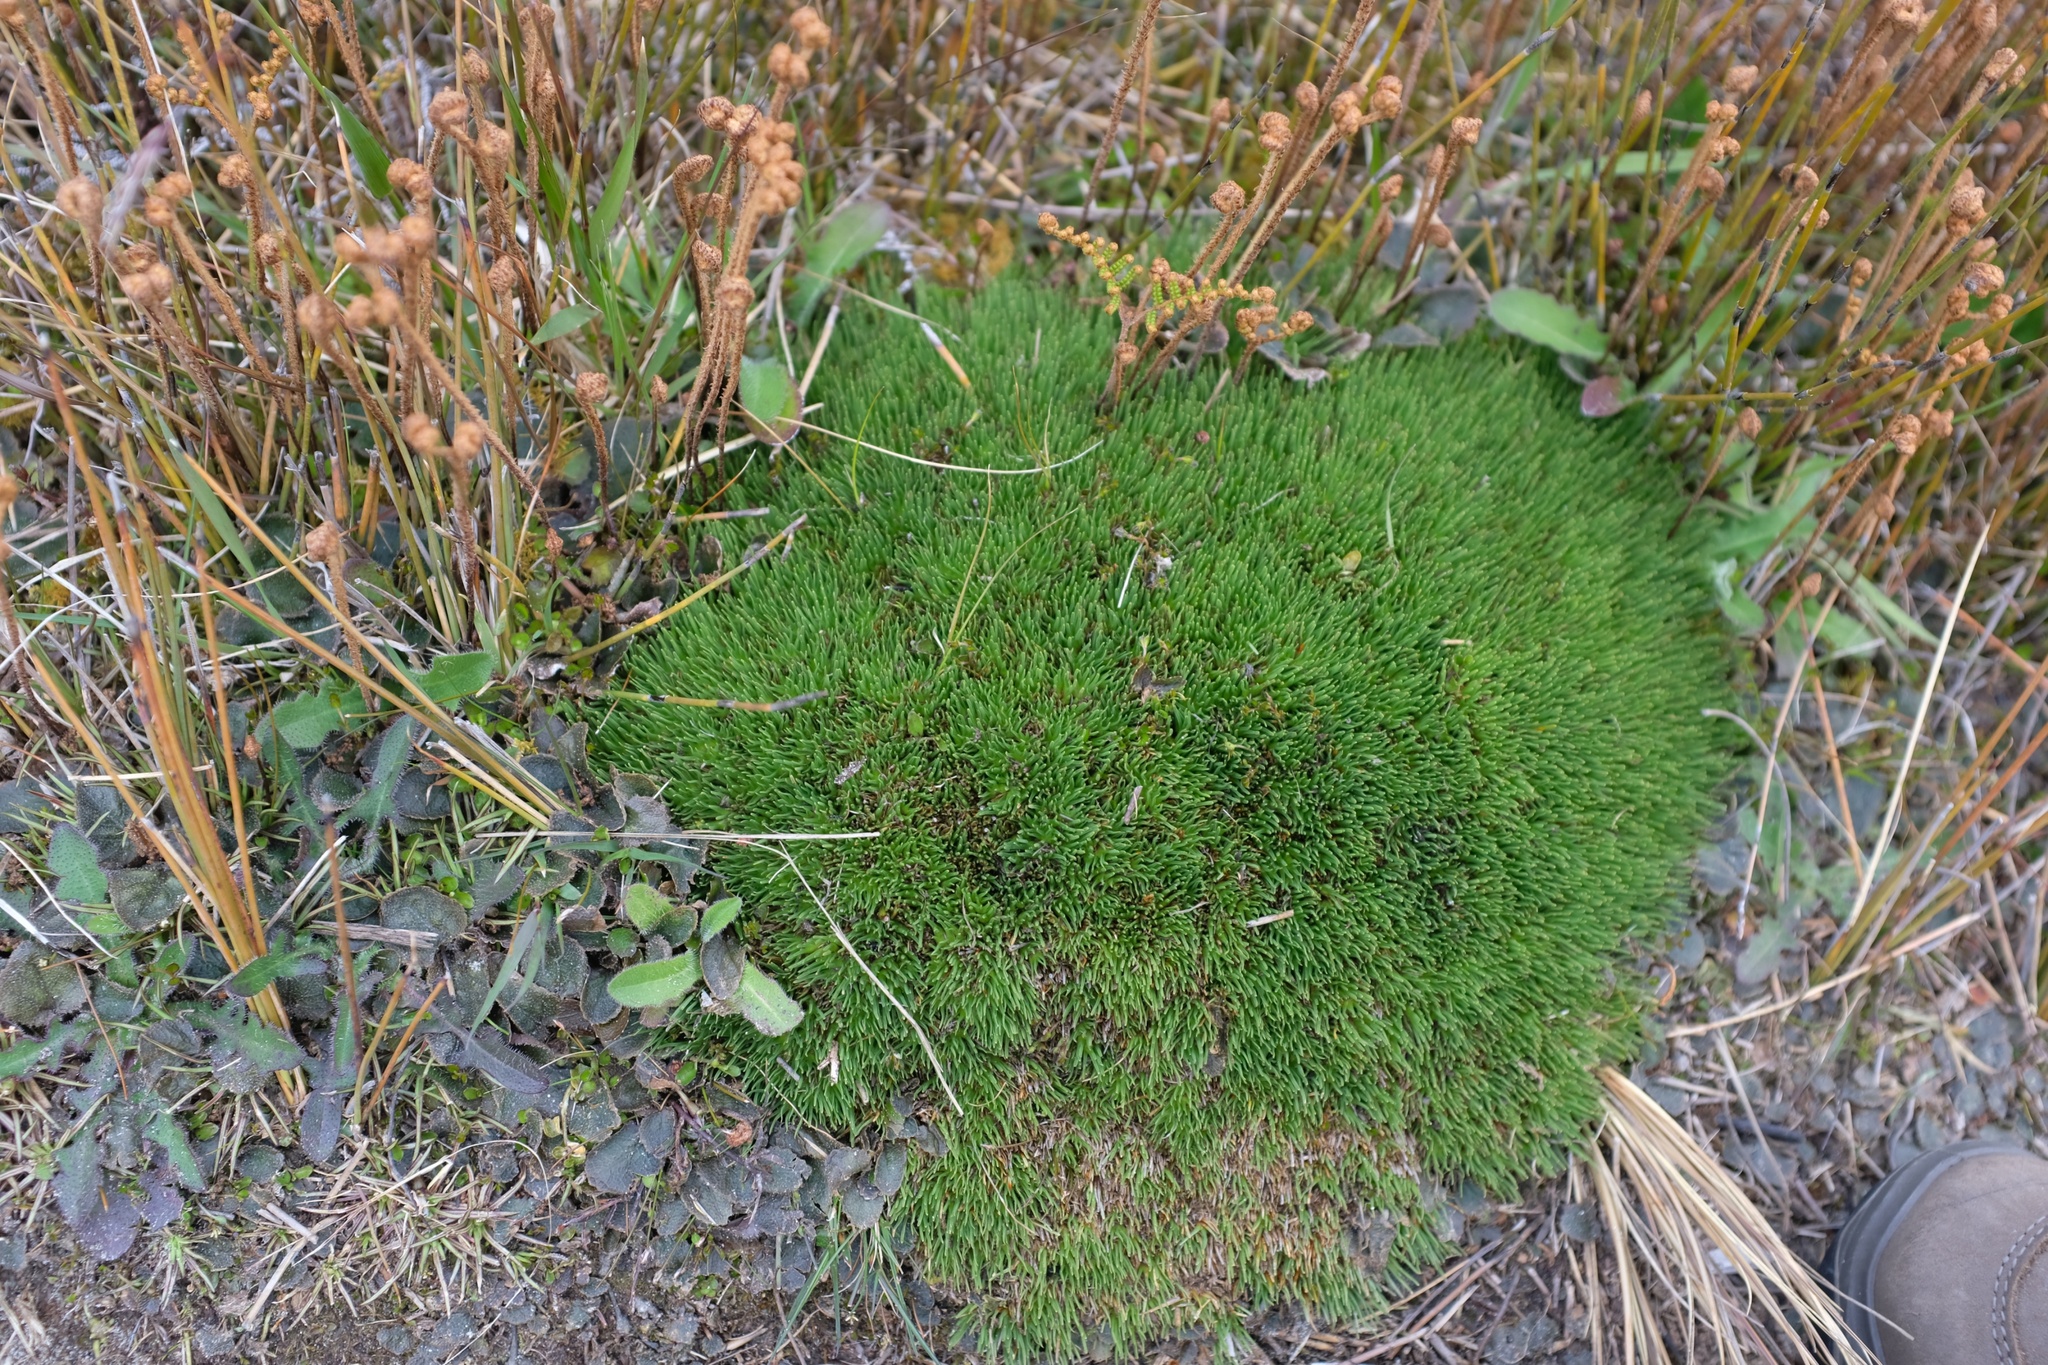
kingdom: Plantae
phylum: Tracheophyta
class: Liliopsida
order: Poales
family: Cyperaceae
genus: Oreobolus
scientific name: Oreobolus pectinatus
